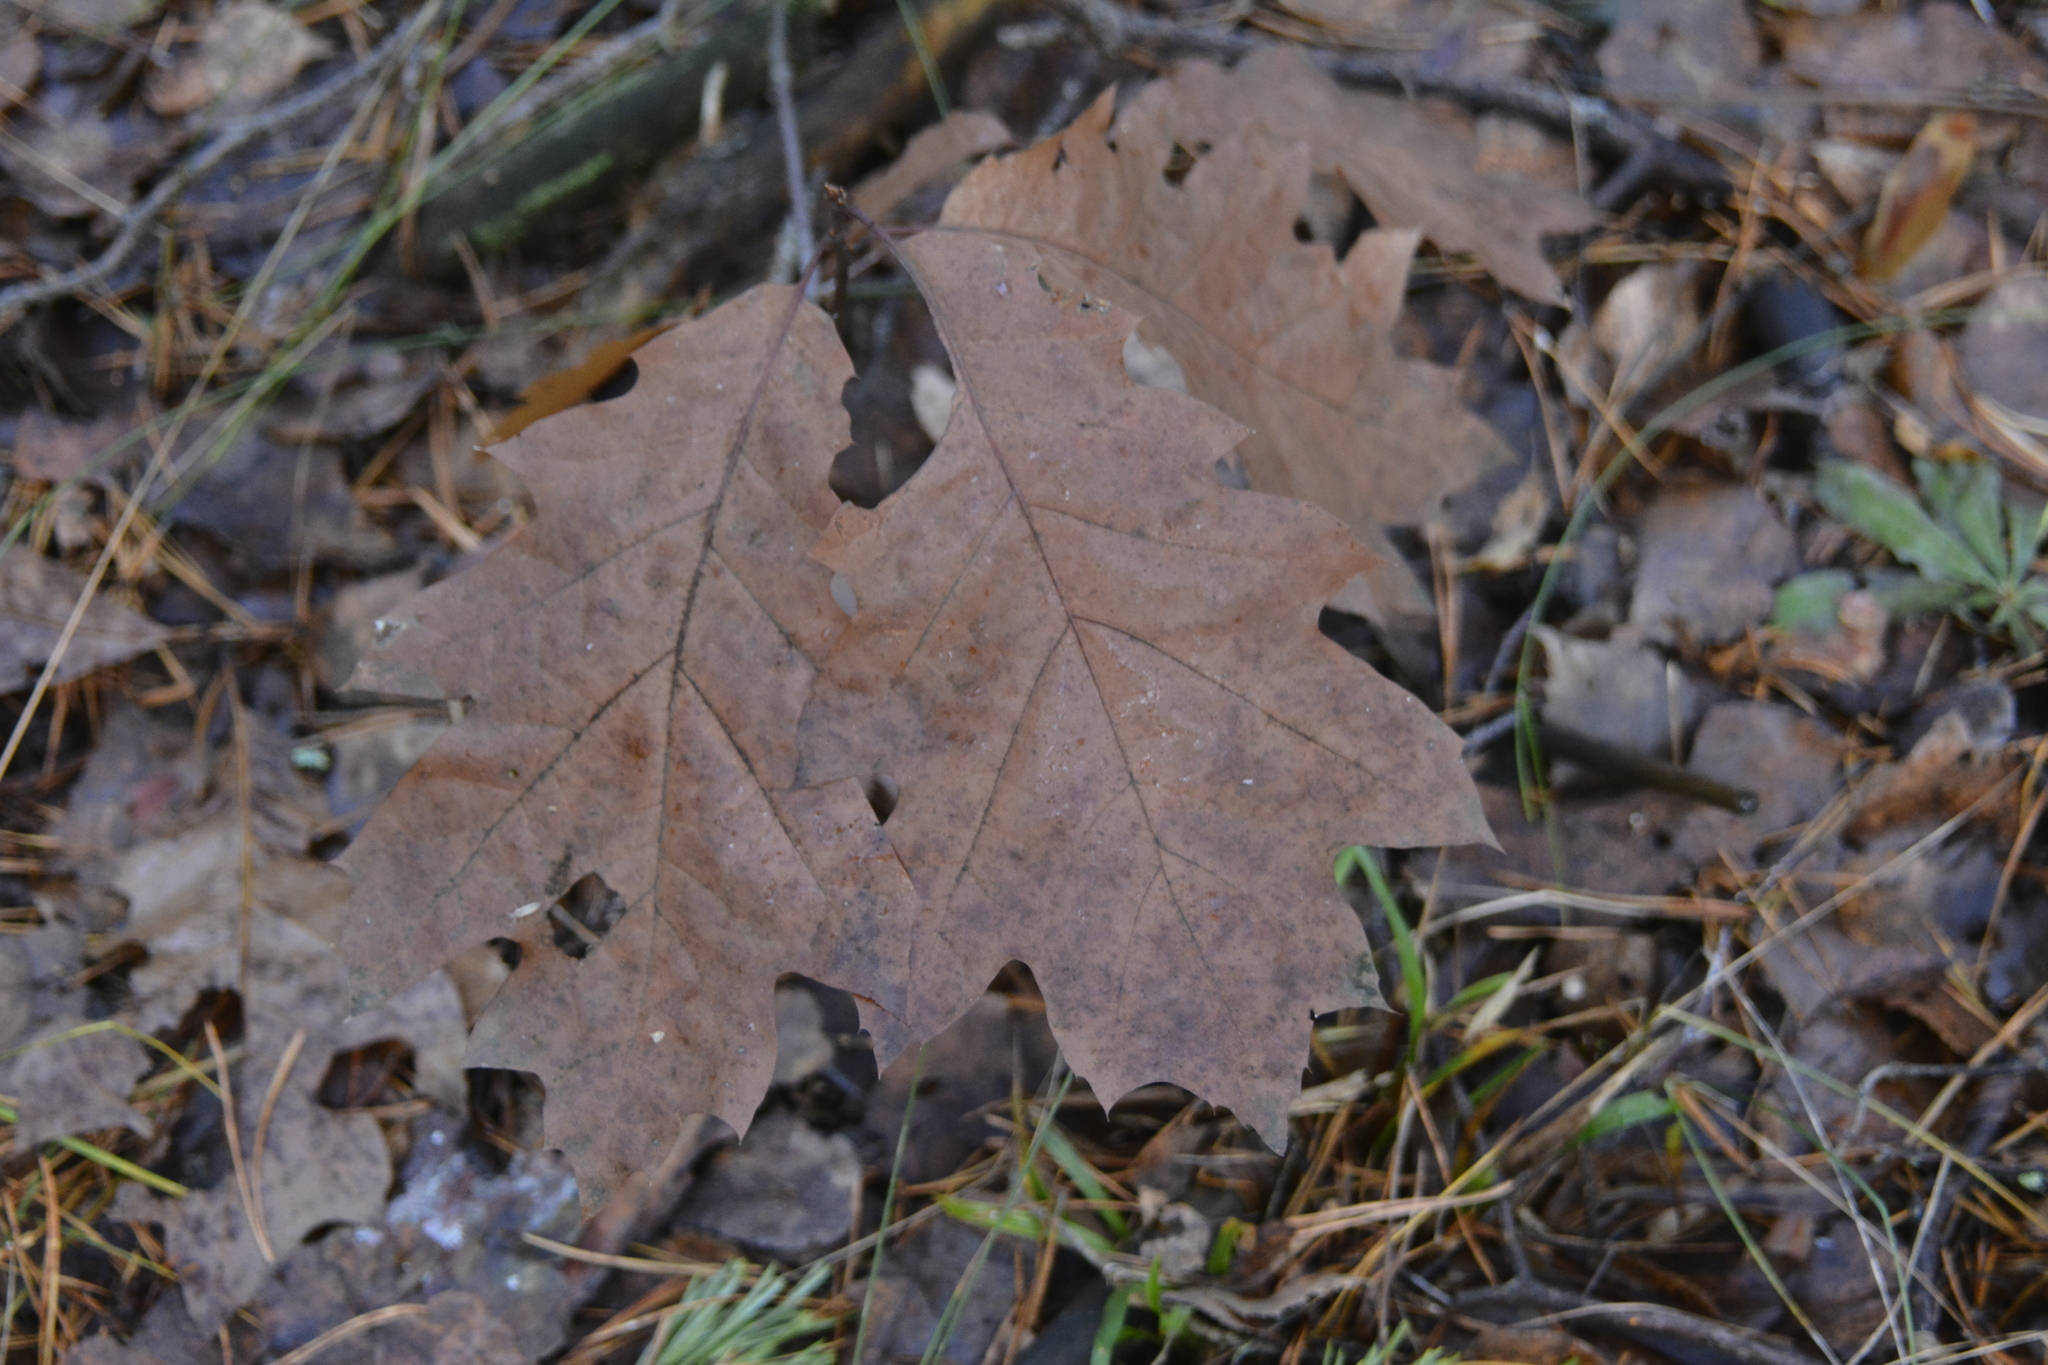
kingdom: Plantae
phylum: Tracheophyta
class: Magnoliopsida
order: Fagales
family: Fagaceae
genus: Quercus
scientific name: Quercus rubra
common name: Red oak
